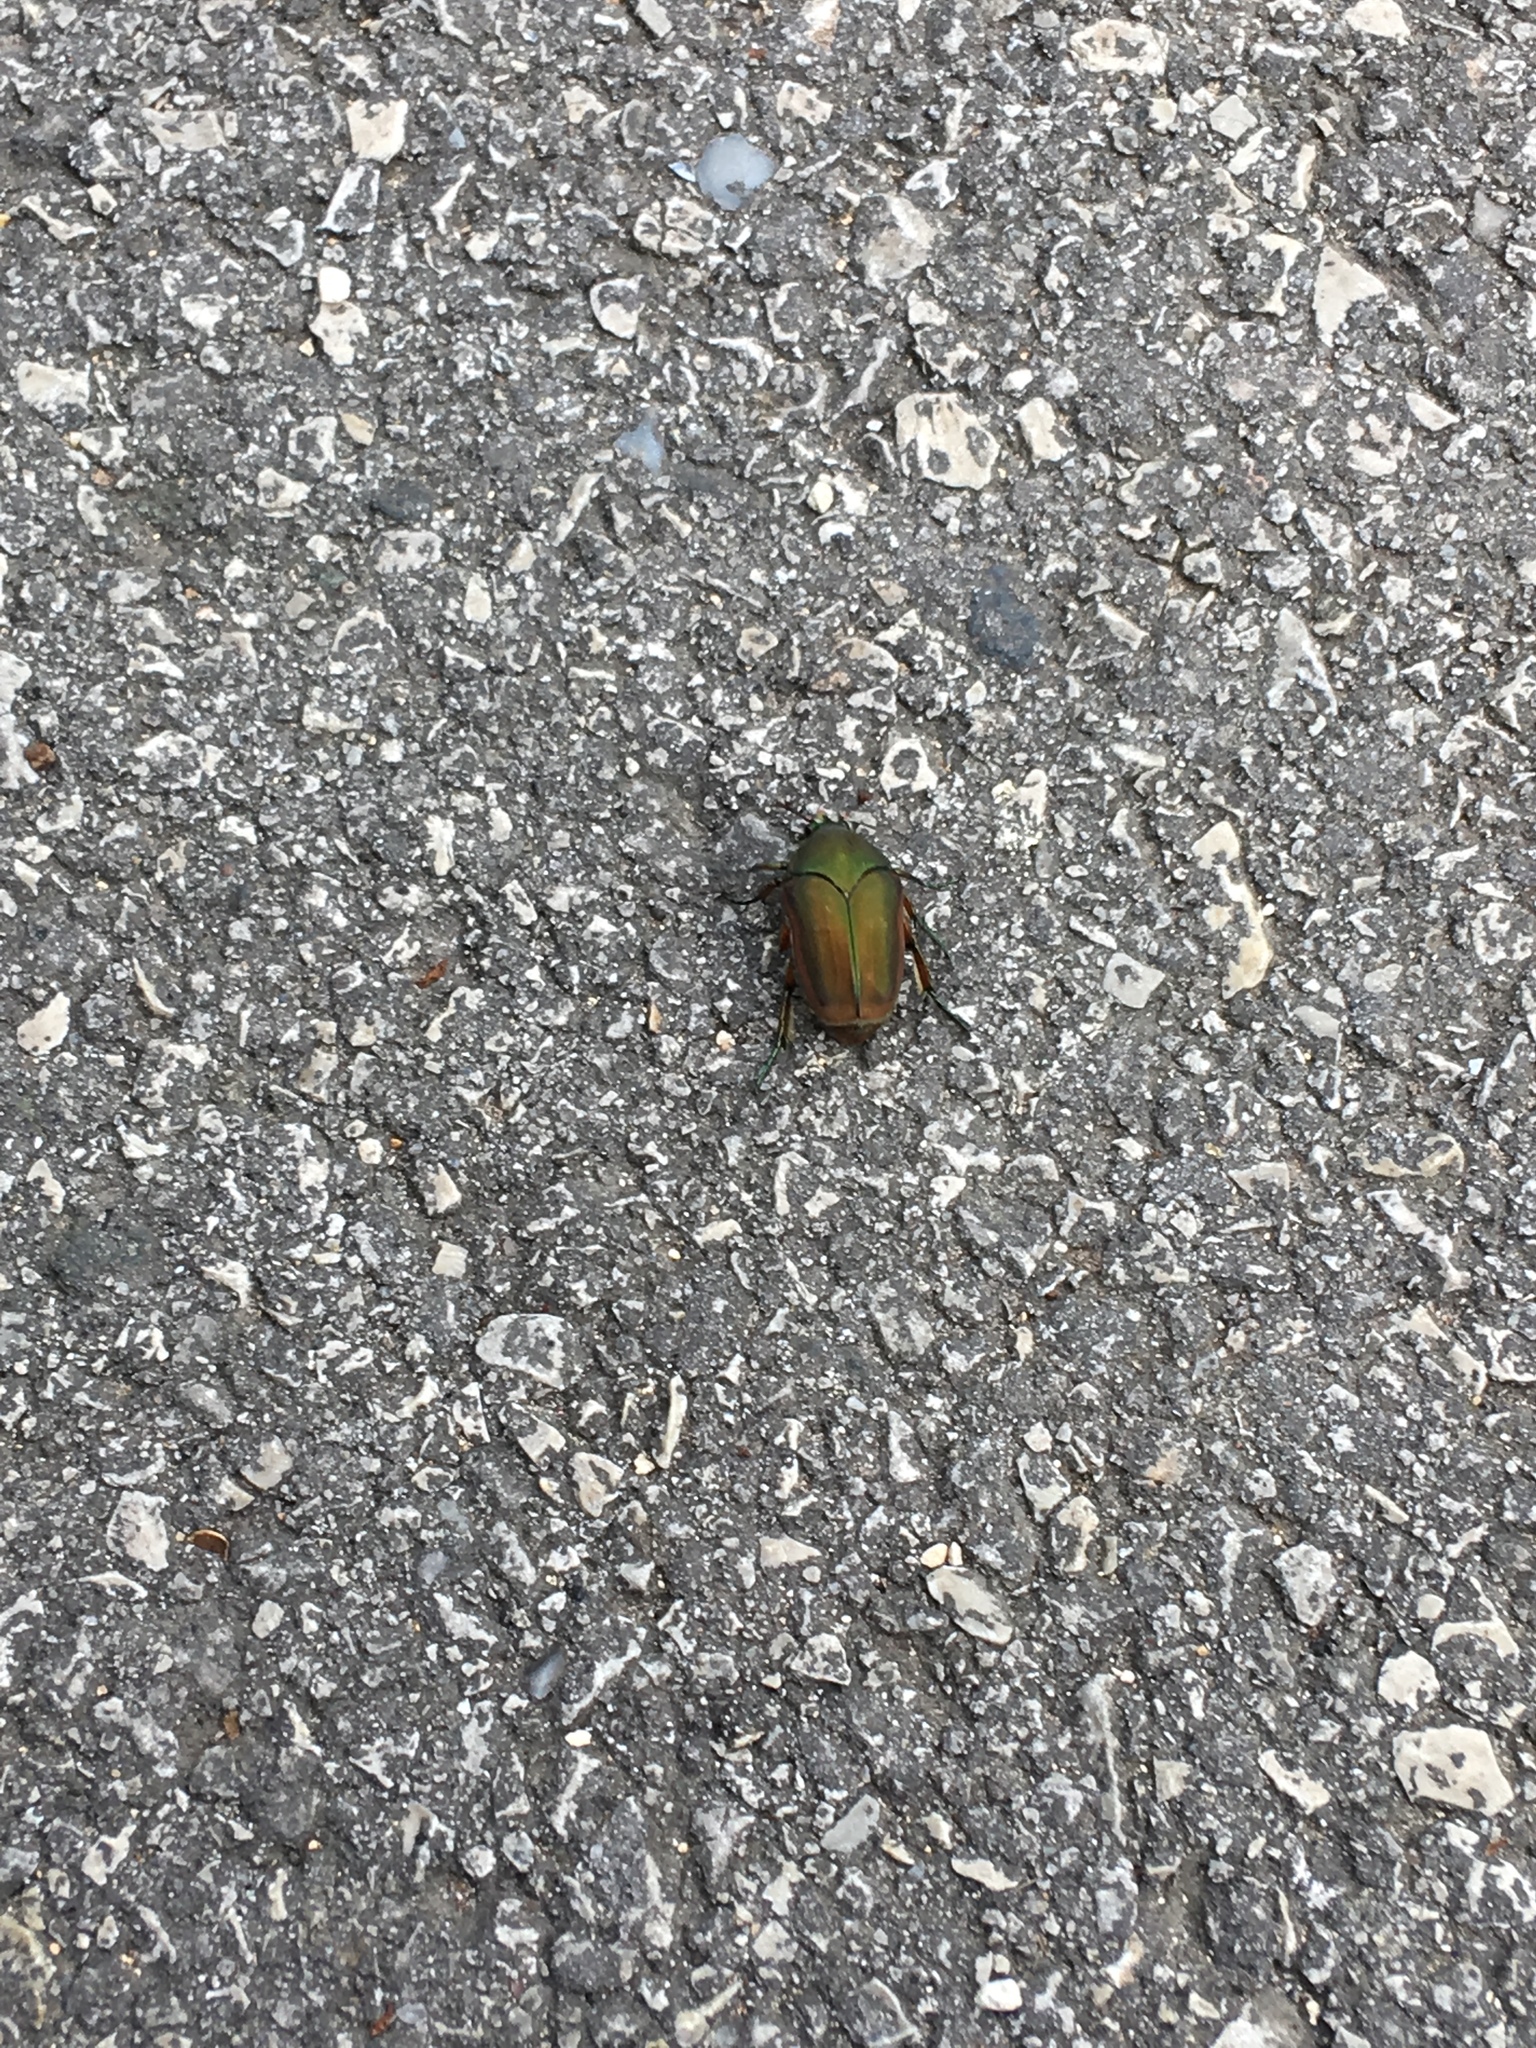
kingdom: Animalia
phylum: Arthropoda
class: Insecta
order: Coleoptera
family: Scarabaeidae
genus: Cotinis
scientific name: Cotinis nitida
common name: Common green june beetle
